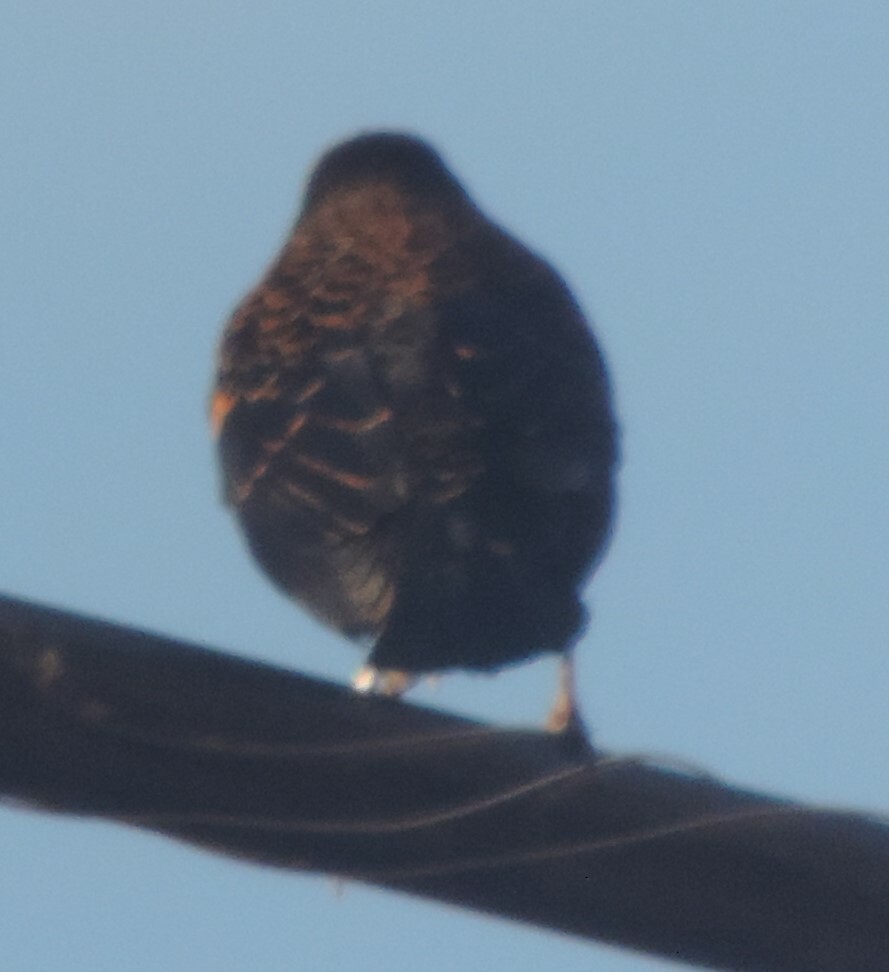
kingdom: Animalia
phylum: Chordata
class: Aves
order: Passeriformes
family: Icteridae
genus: Agelaius
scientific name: Agelaius phoeniceus
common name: Red-winged blackbird
